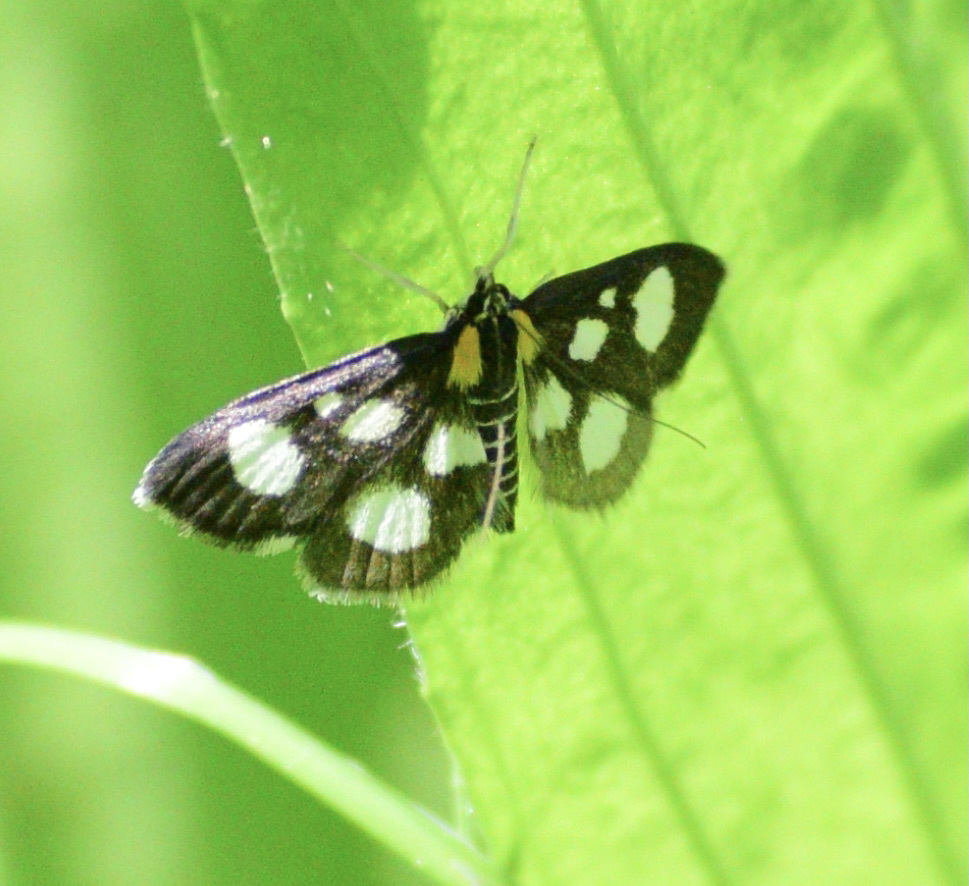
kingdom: Animalia
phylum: Arthropoda
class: Insecta
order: Lepidoptera
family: Crambidae
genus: Anania
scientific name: Anania funebris
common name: White-spotted sable moth
